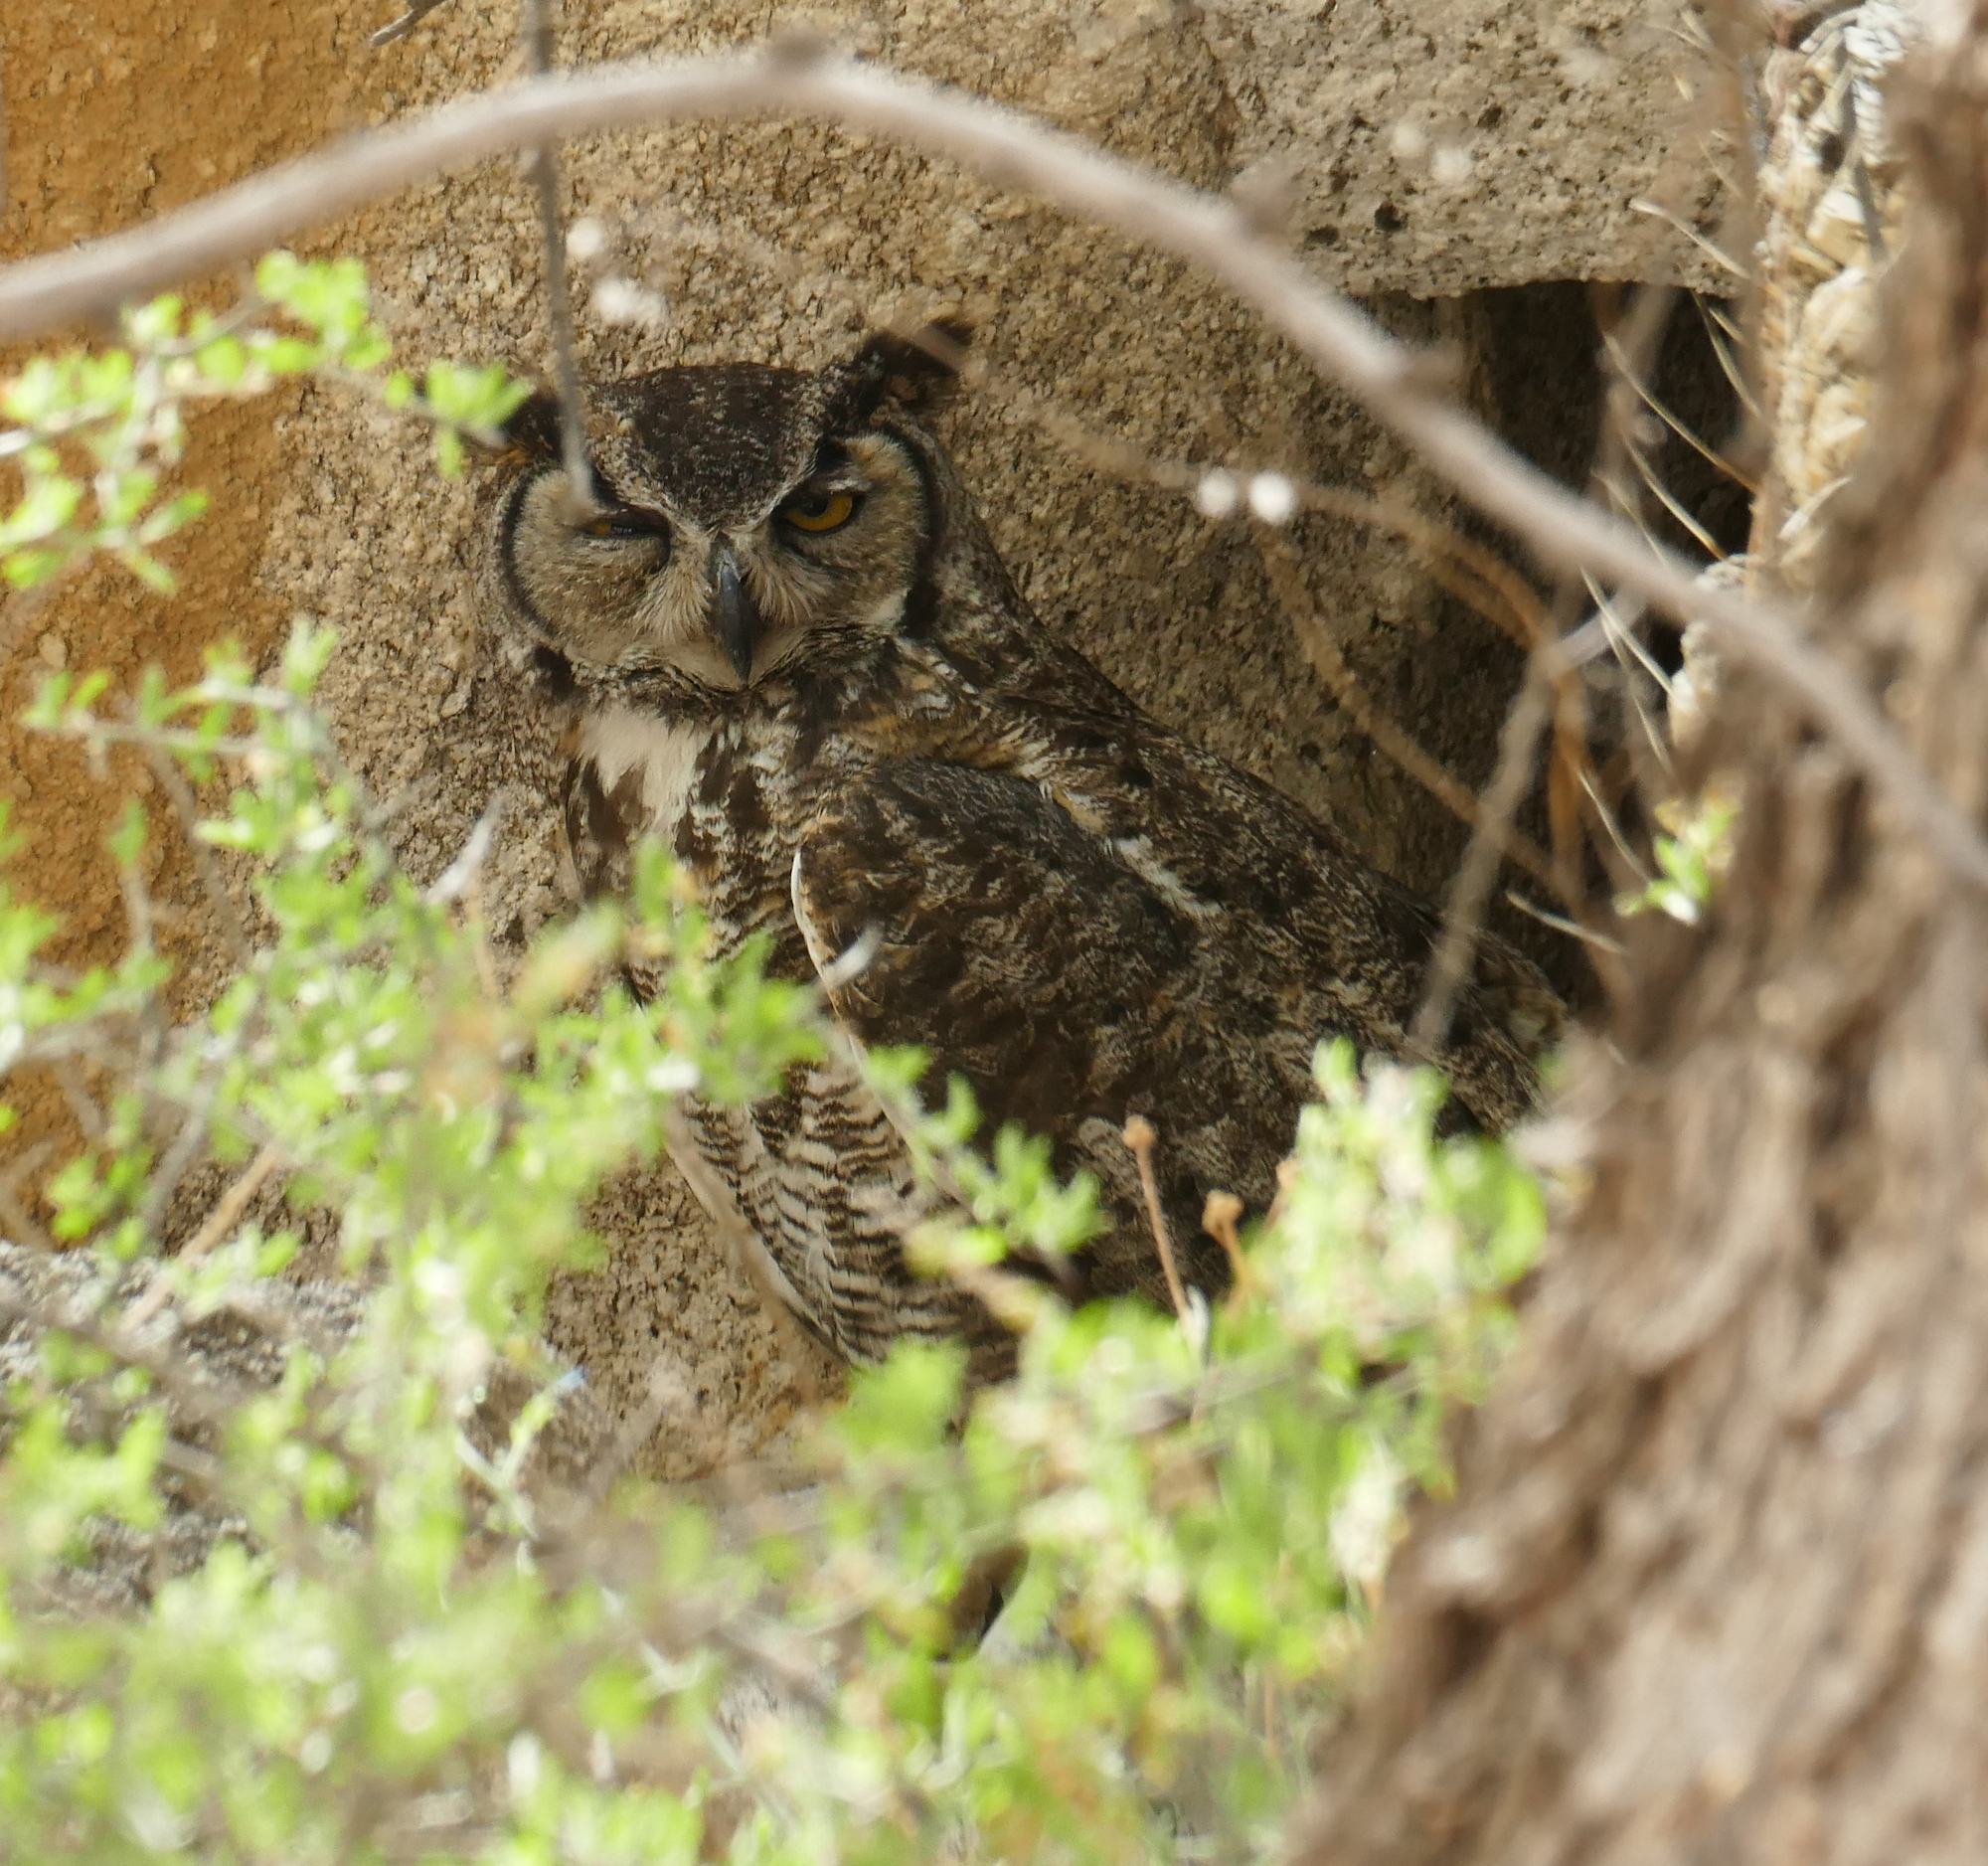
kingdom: Animalia
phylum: Chordata
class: Aves
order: Strigiformes
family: Strigidae
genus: Bubo
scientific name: Bubo virginianus
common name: Great horned owl
